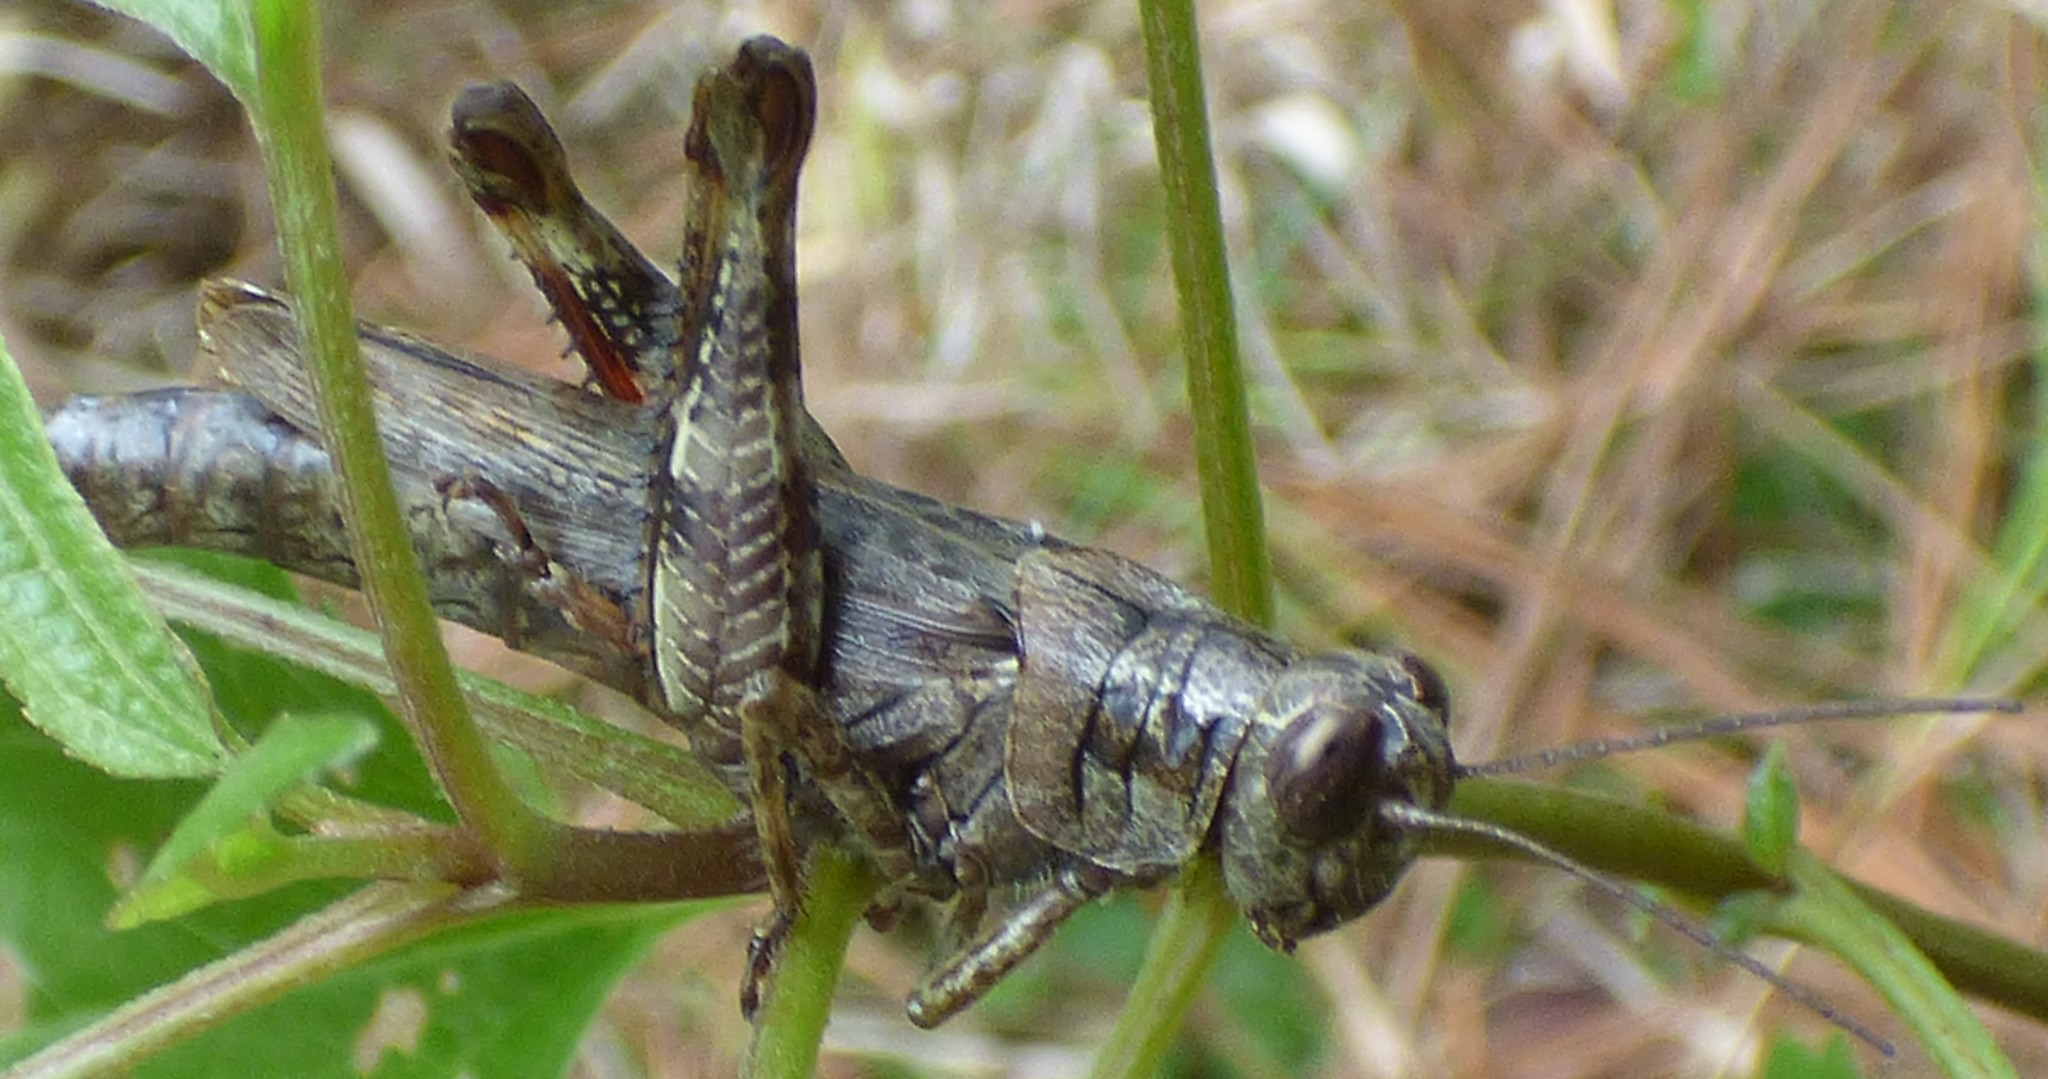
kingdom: Animalia
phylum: Arthropoda
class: Insecta
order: Orthoptera
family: Acrididae
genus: Melanoplus
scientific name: Melanoplus punctulatus
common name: Pine-tree spur-throat grasshopper
